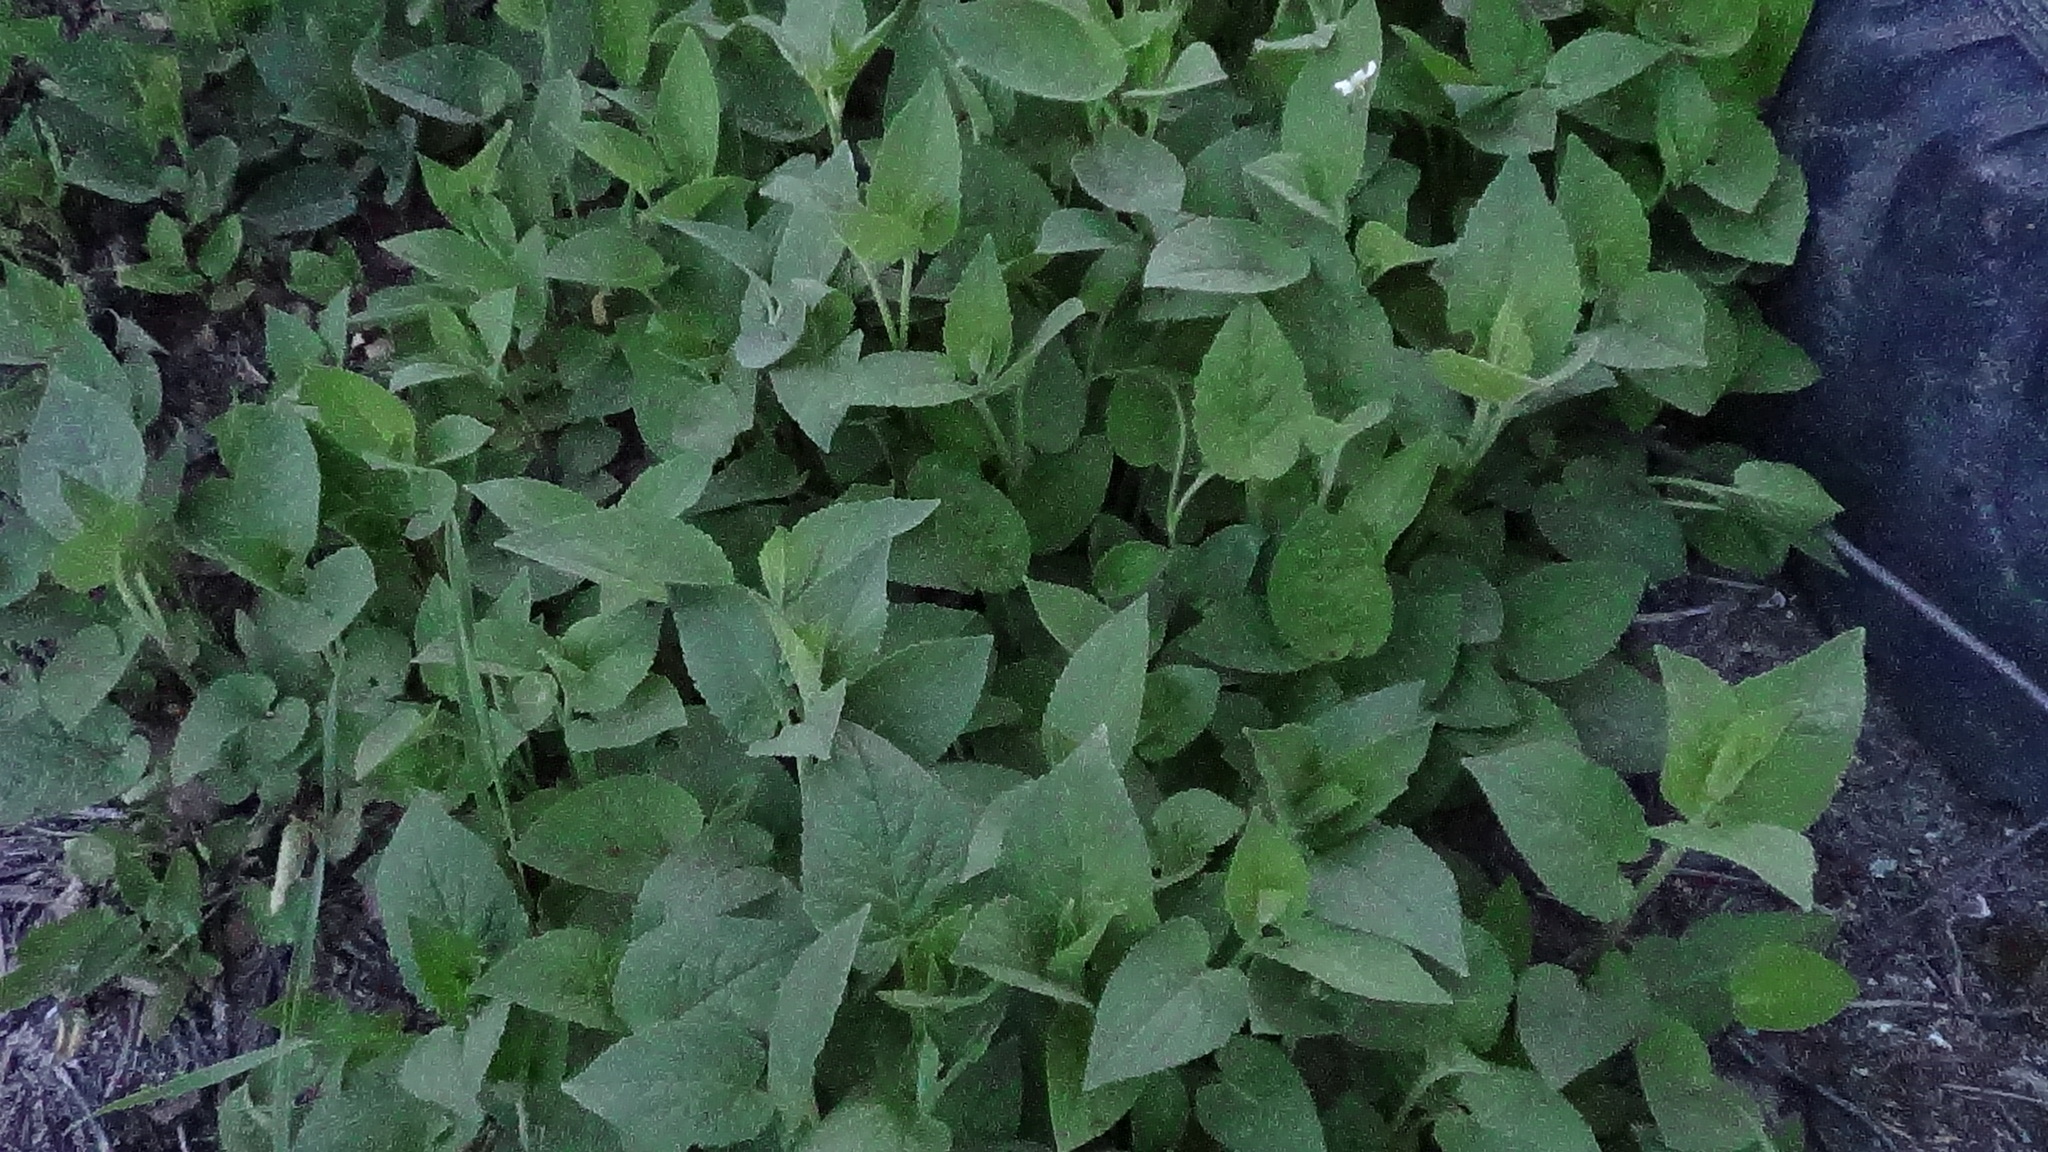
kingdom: Plantae
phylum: Tracheophyta
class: Magnoliopsida
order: Asterales
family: Campanulaceae
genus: Campanula
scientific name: Campanula rapunculoides
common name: Creeping bellflower
